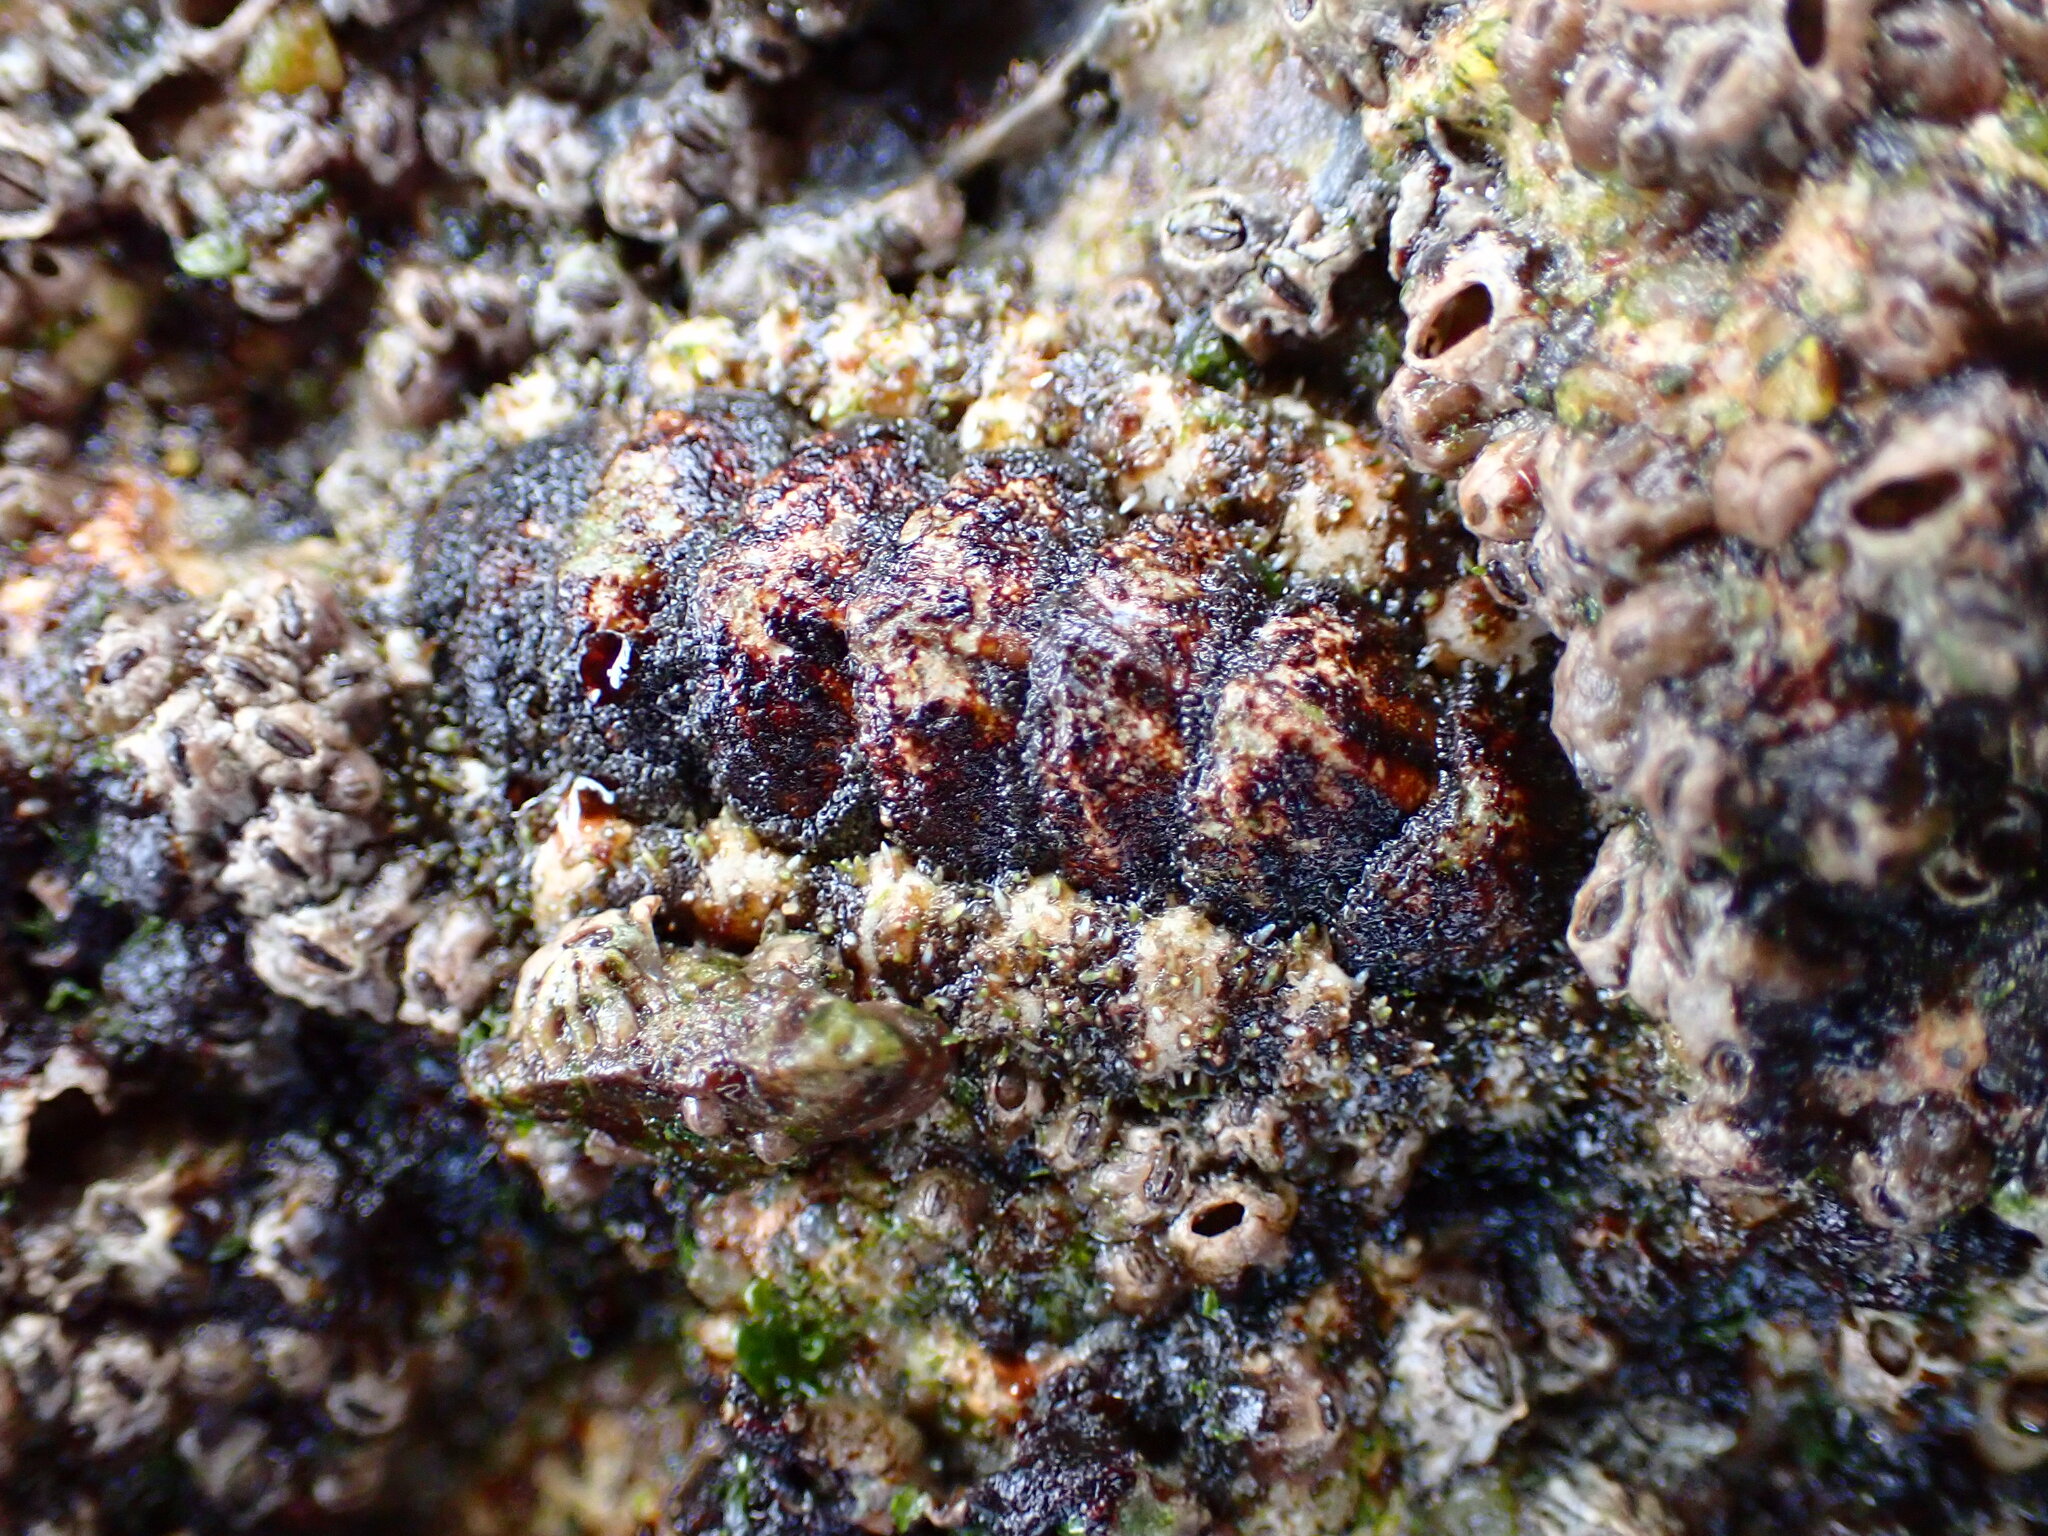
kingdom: Animalia
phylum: Mollusca
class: Polyplacophora
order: Chitonida
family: Tonicellidae
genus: Nuttallina
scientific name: Nuttallina californica
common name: California nuttall chiton
